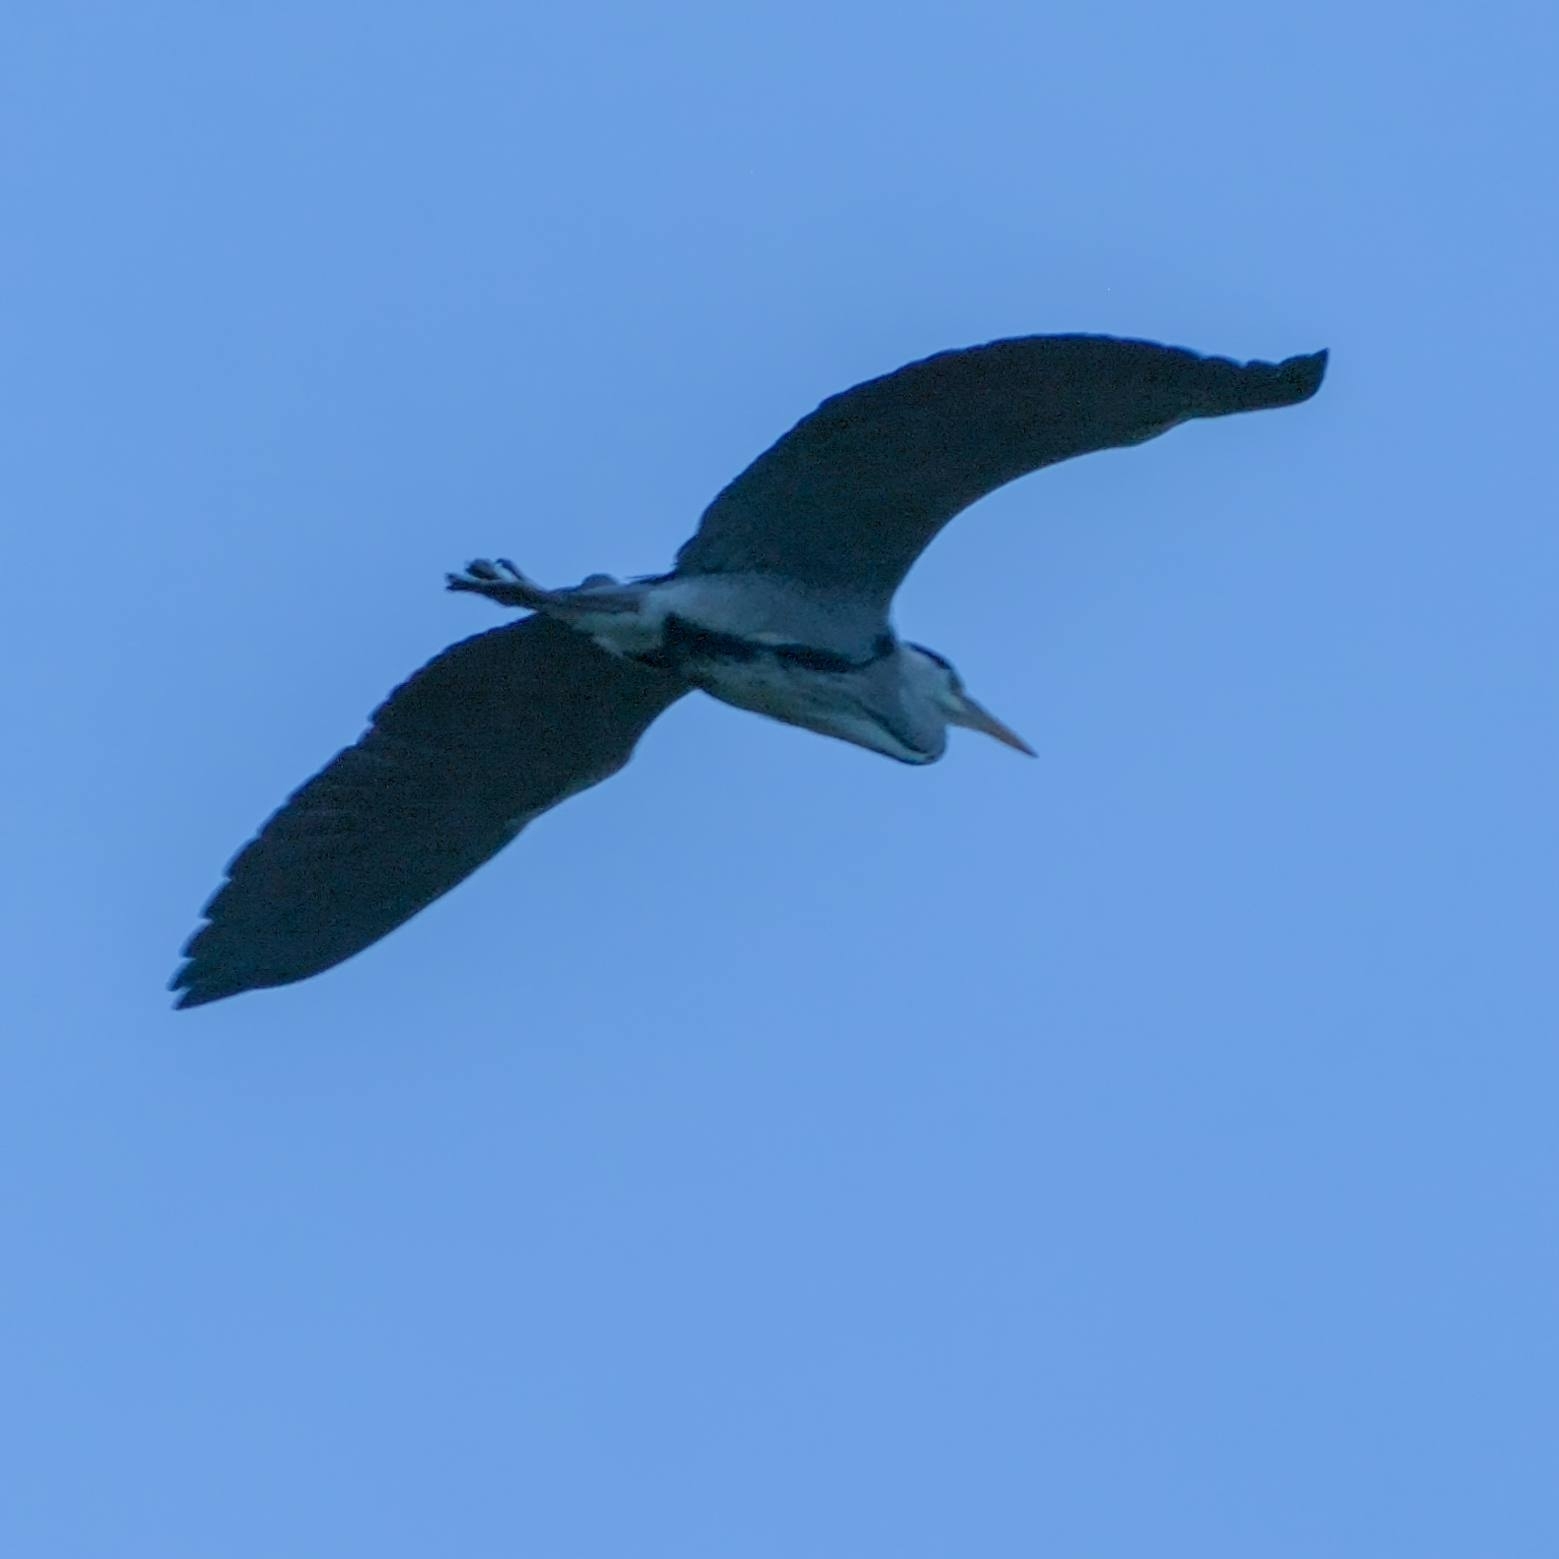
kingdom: Animalia
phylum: Chordata
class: Aves
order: Pelecaniformes
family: Ardeidae
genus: Ardea
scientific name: Ardea cinerea
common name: Grey heron
